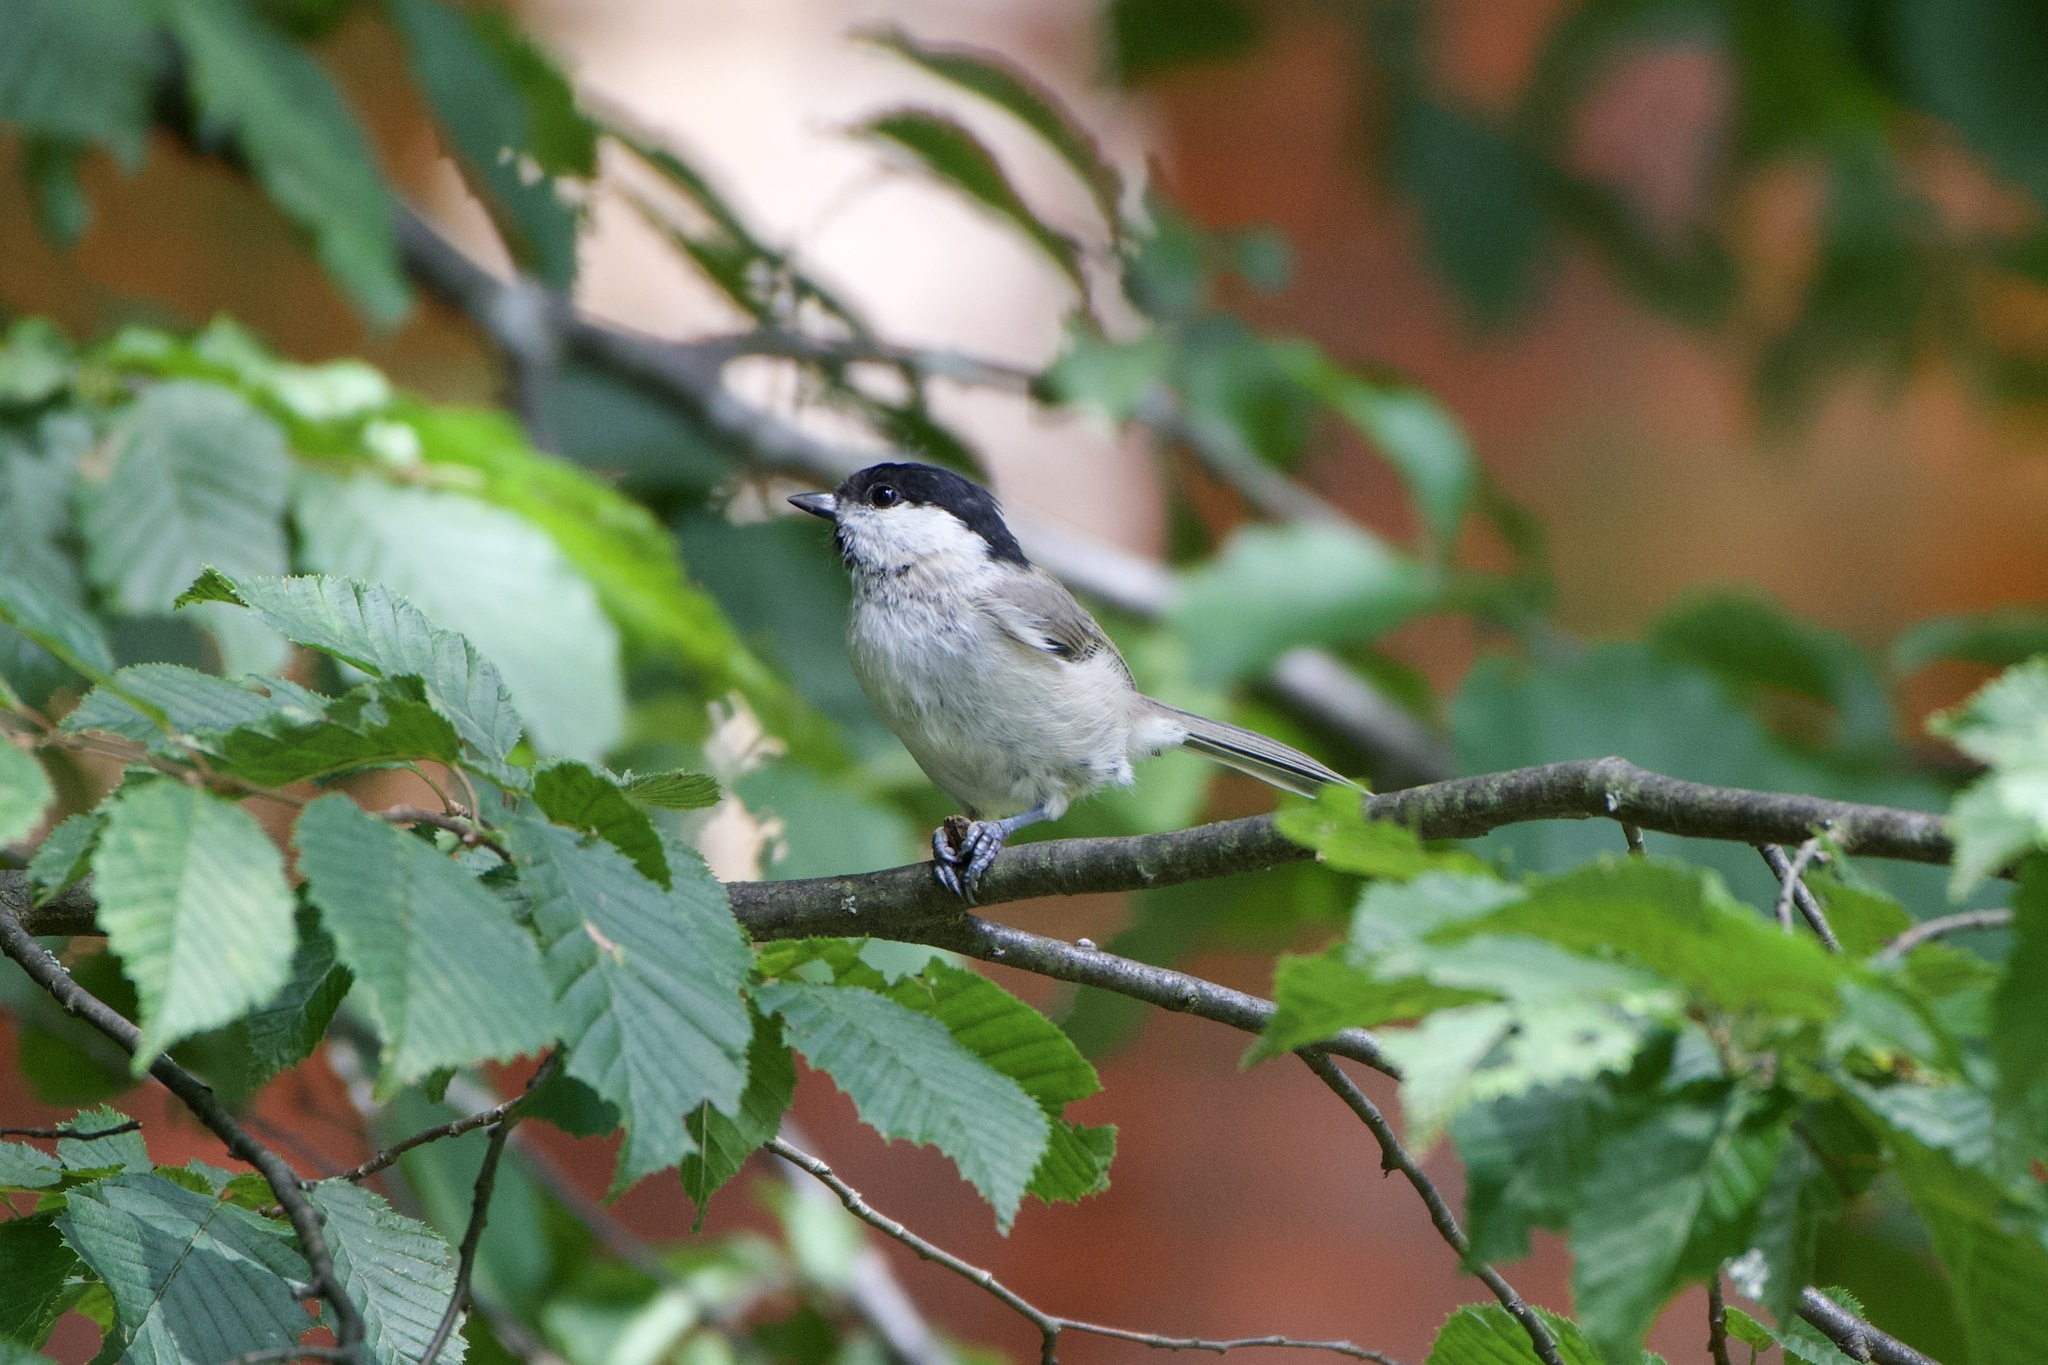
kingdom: Animalia
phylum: Chordata
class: Aves
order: Passeriformes
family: Paridae
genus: Poecile
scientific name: Poecile palustris
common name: Marsh tit
